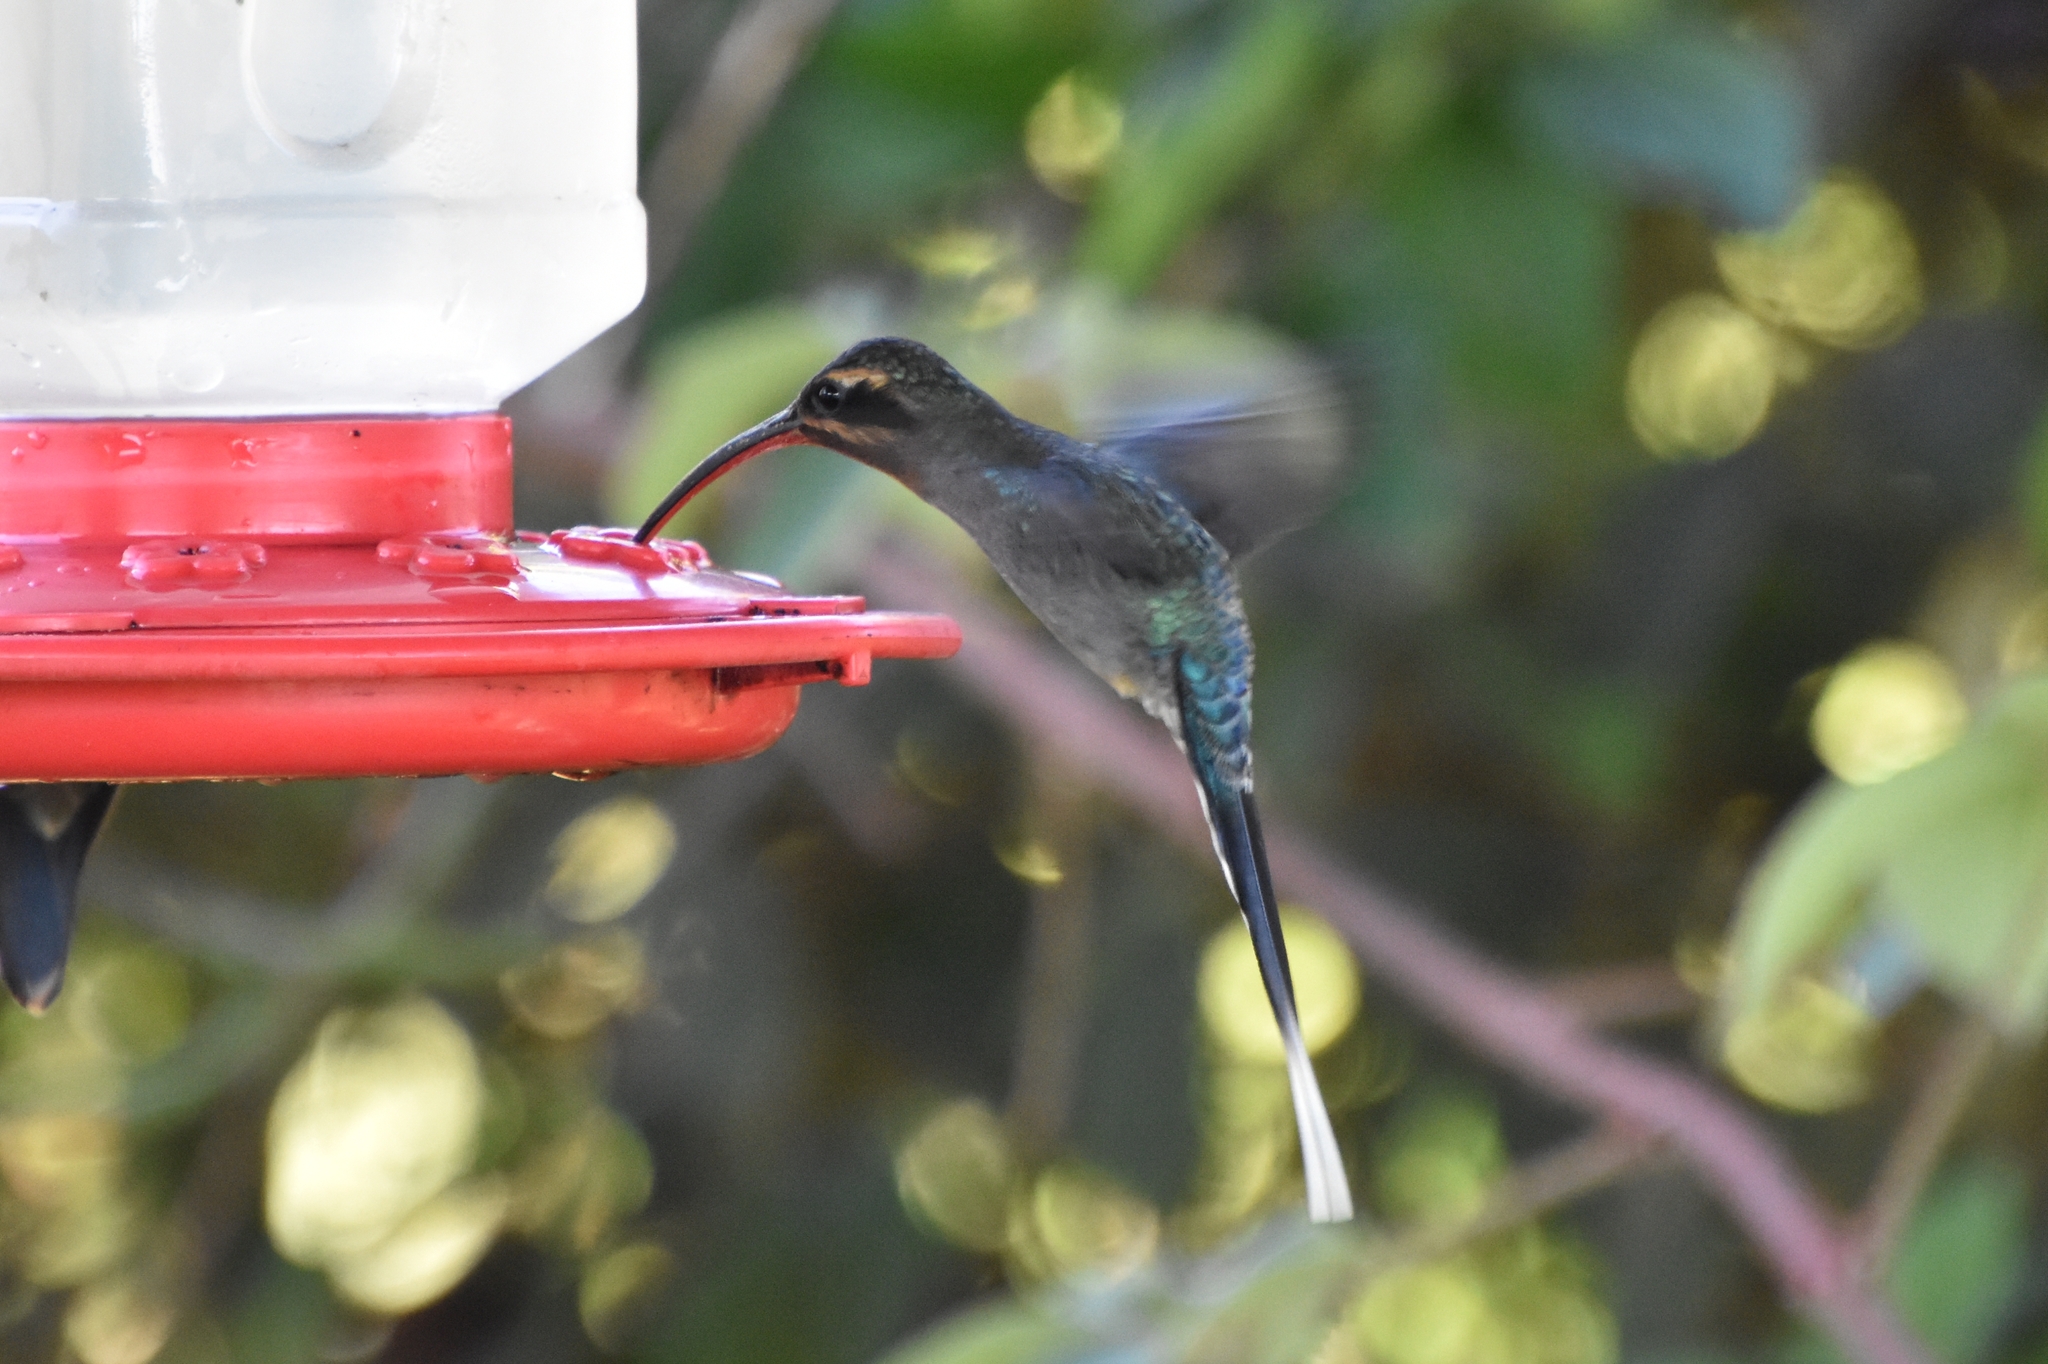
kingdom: Animalia
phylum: Chordata
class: Aves
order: Apodiformes
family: Trochilidae
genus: Phaethornis
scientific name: Phaethornis guy
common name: Green hermit
